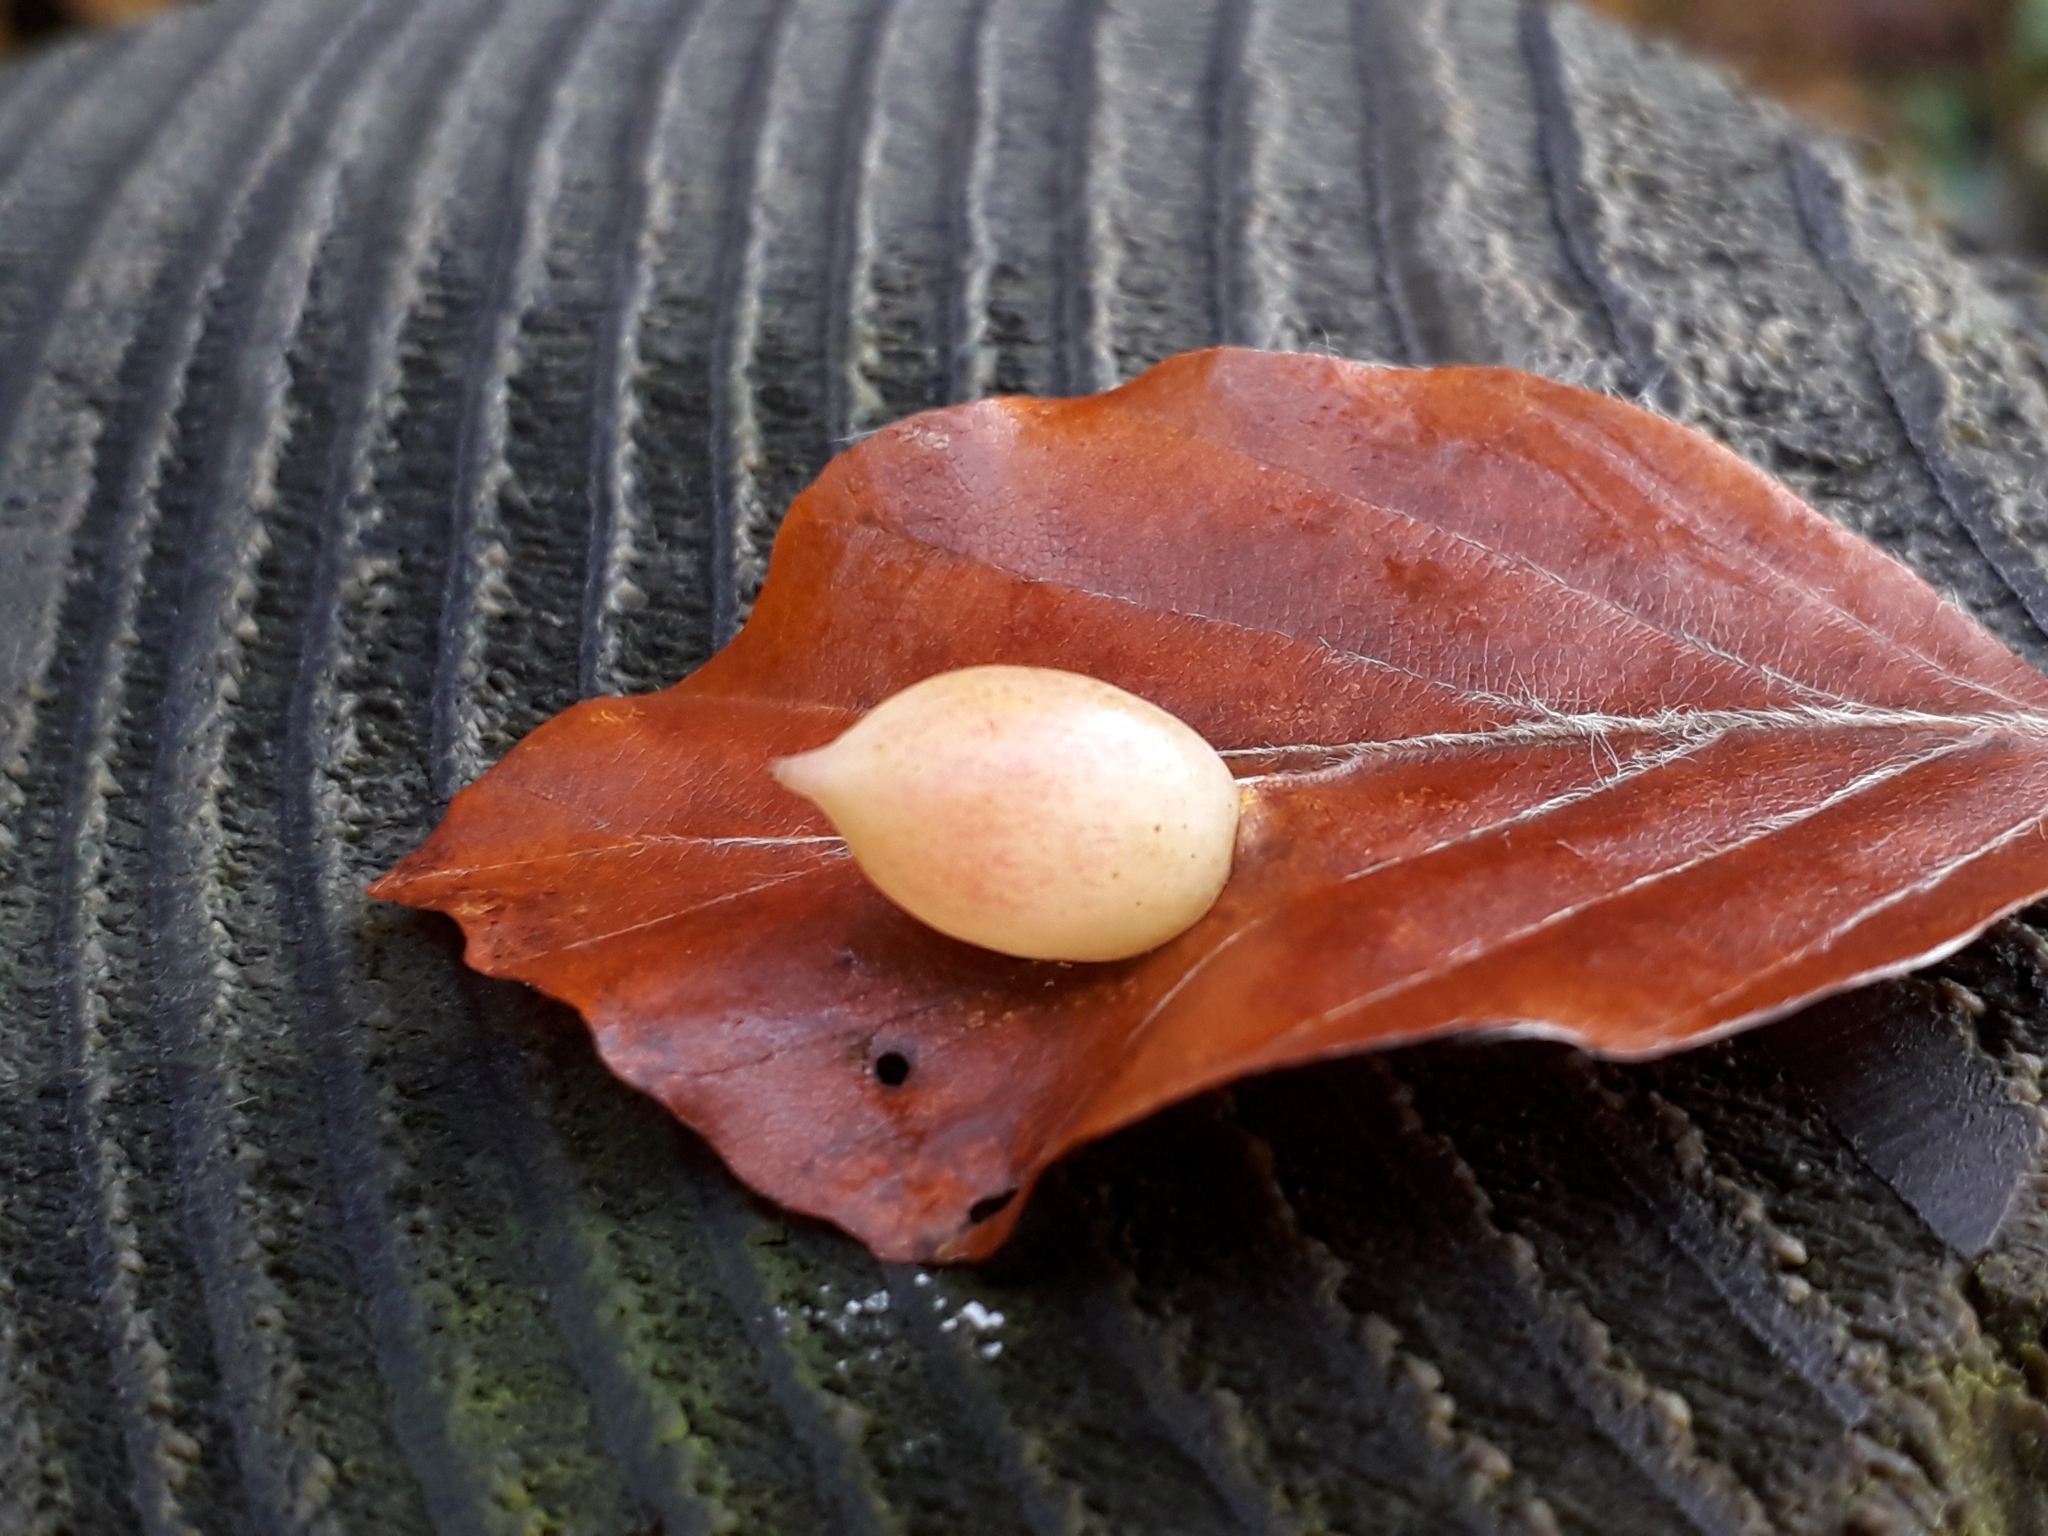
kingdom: Animalia
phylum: Arthropoda
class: Insecta
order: Diptera
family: Cecidomyiidae
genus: Mikiola
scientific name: Mikiola fagi
